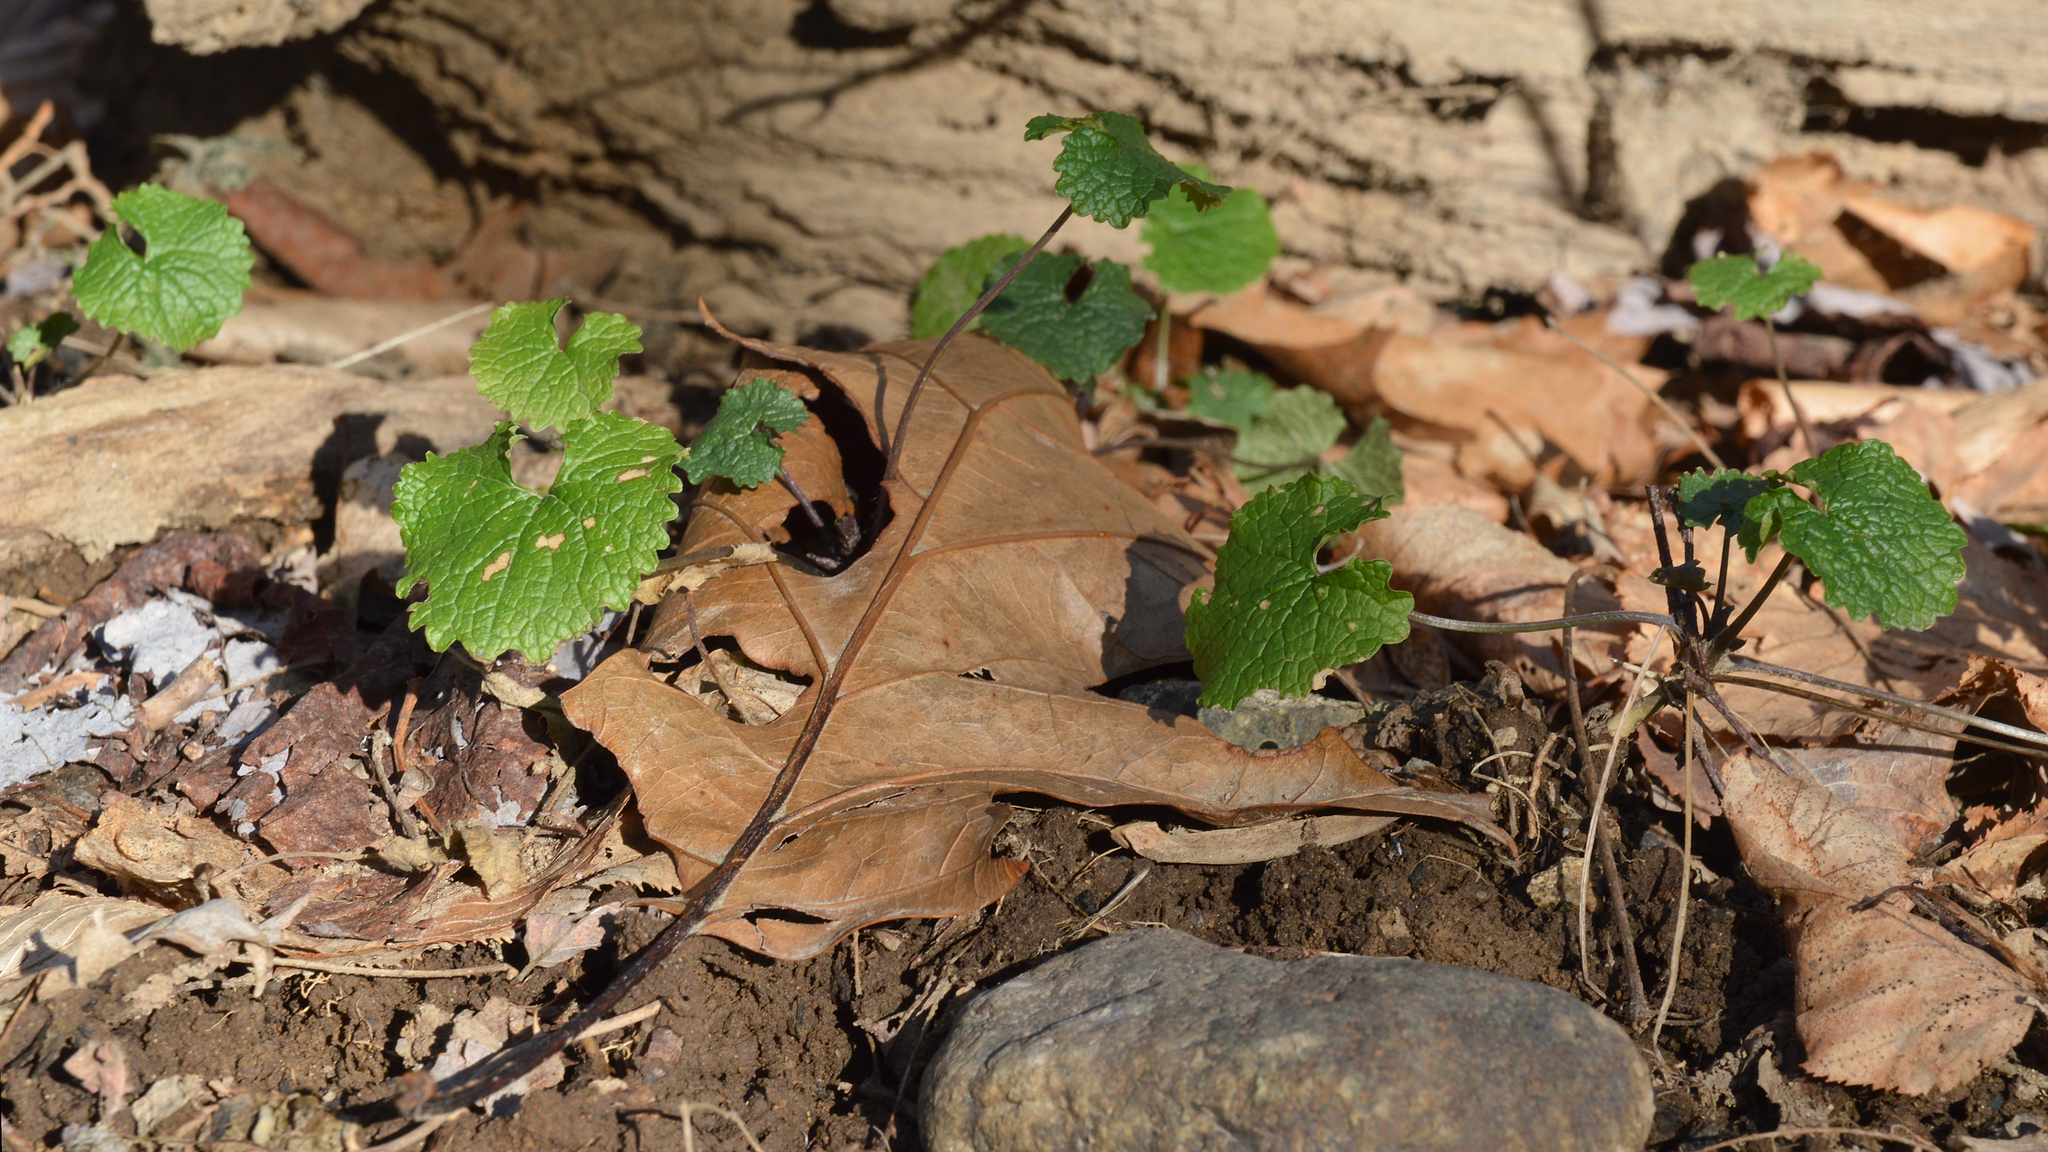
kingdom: Plantae
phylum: Tracheophyta
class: Magnoliopsida
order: Brassicales
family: Brassicaceae
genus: Alliaria
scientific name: Alliaria petiolata
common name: Garlic mustard
